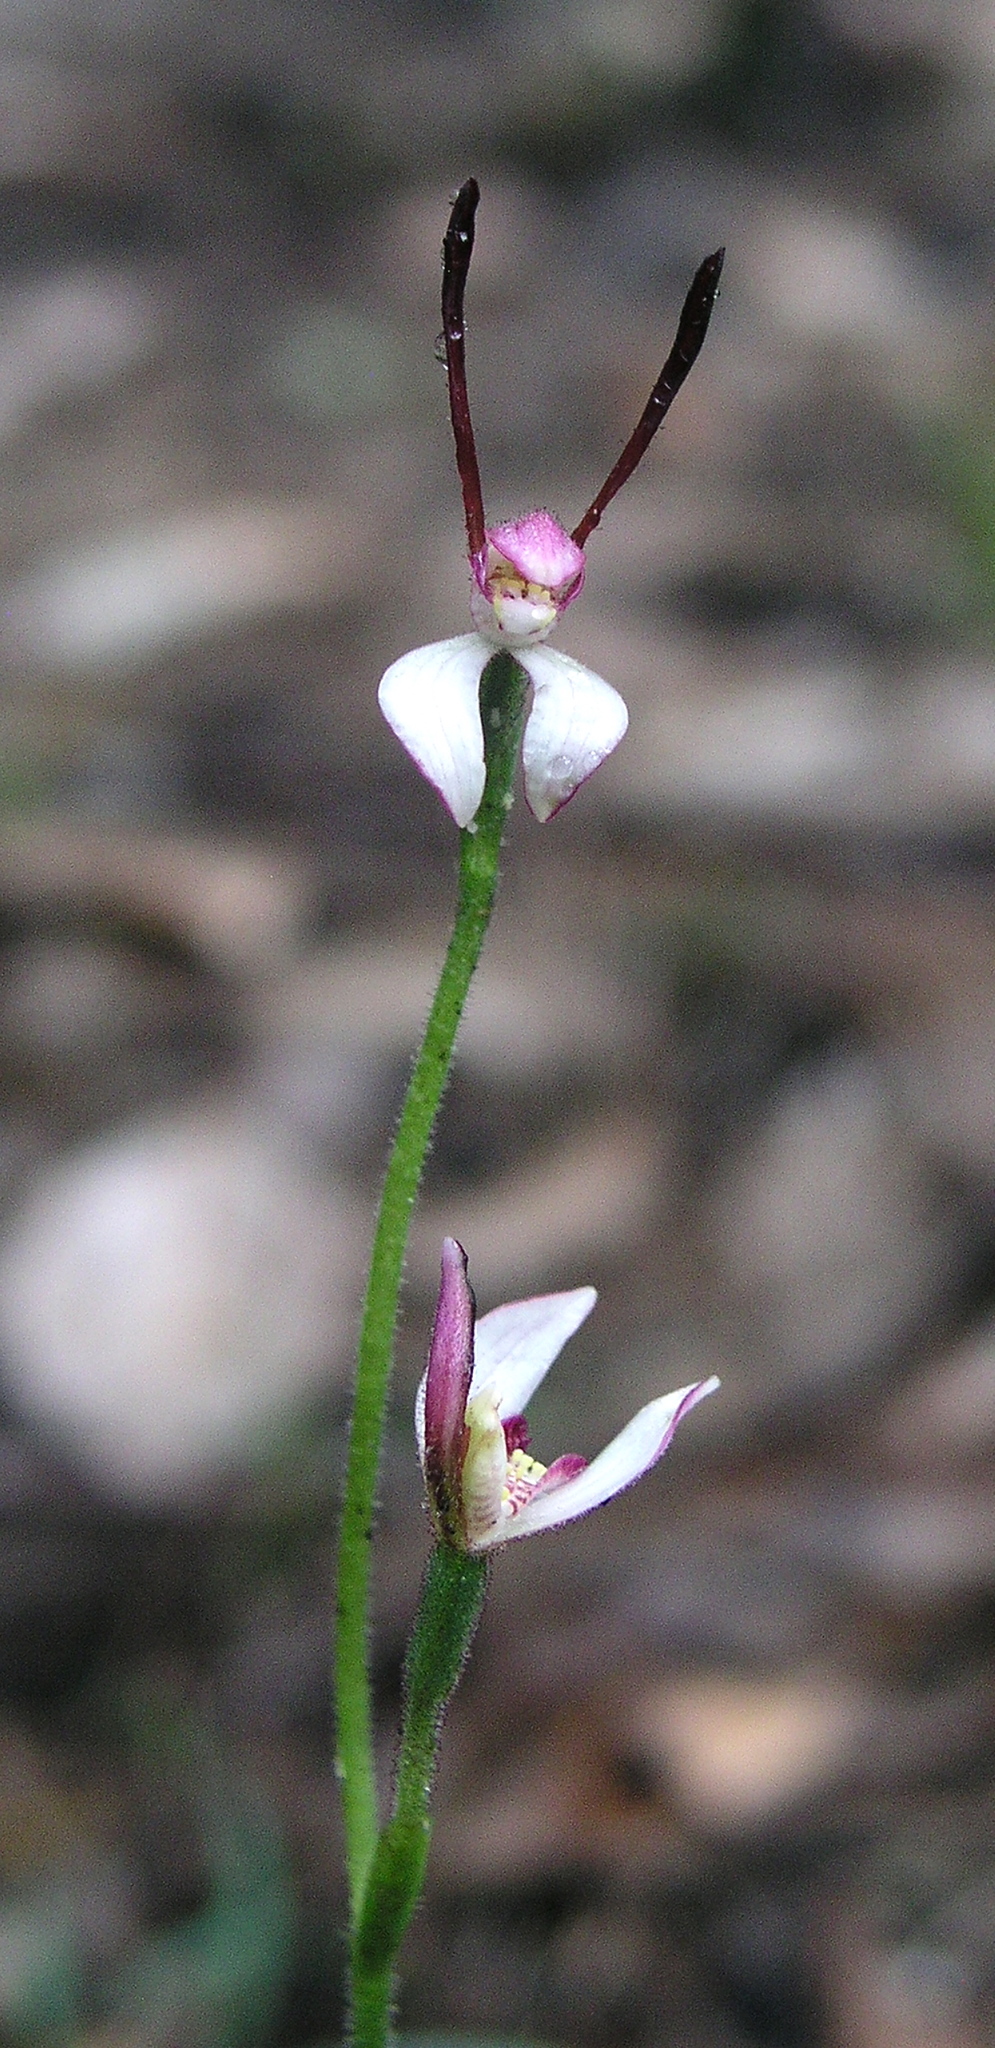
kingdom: Plantae
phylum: Tracheophyta
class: Liliopsida
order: Asparagales
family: Orchidaceae
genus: Leptoceras
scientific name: Leptoceras menziesii
